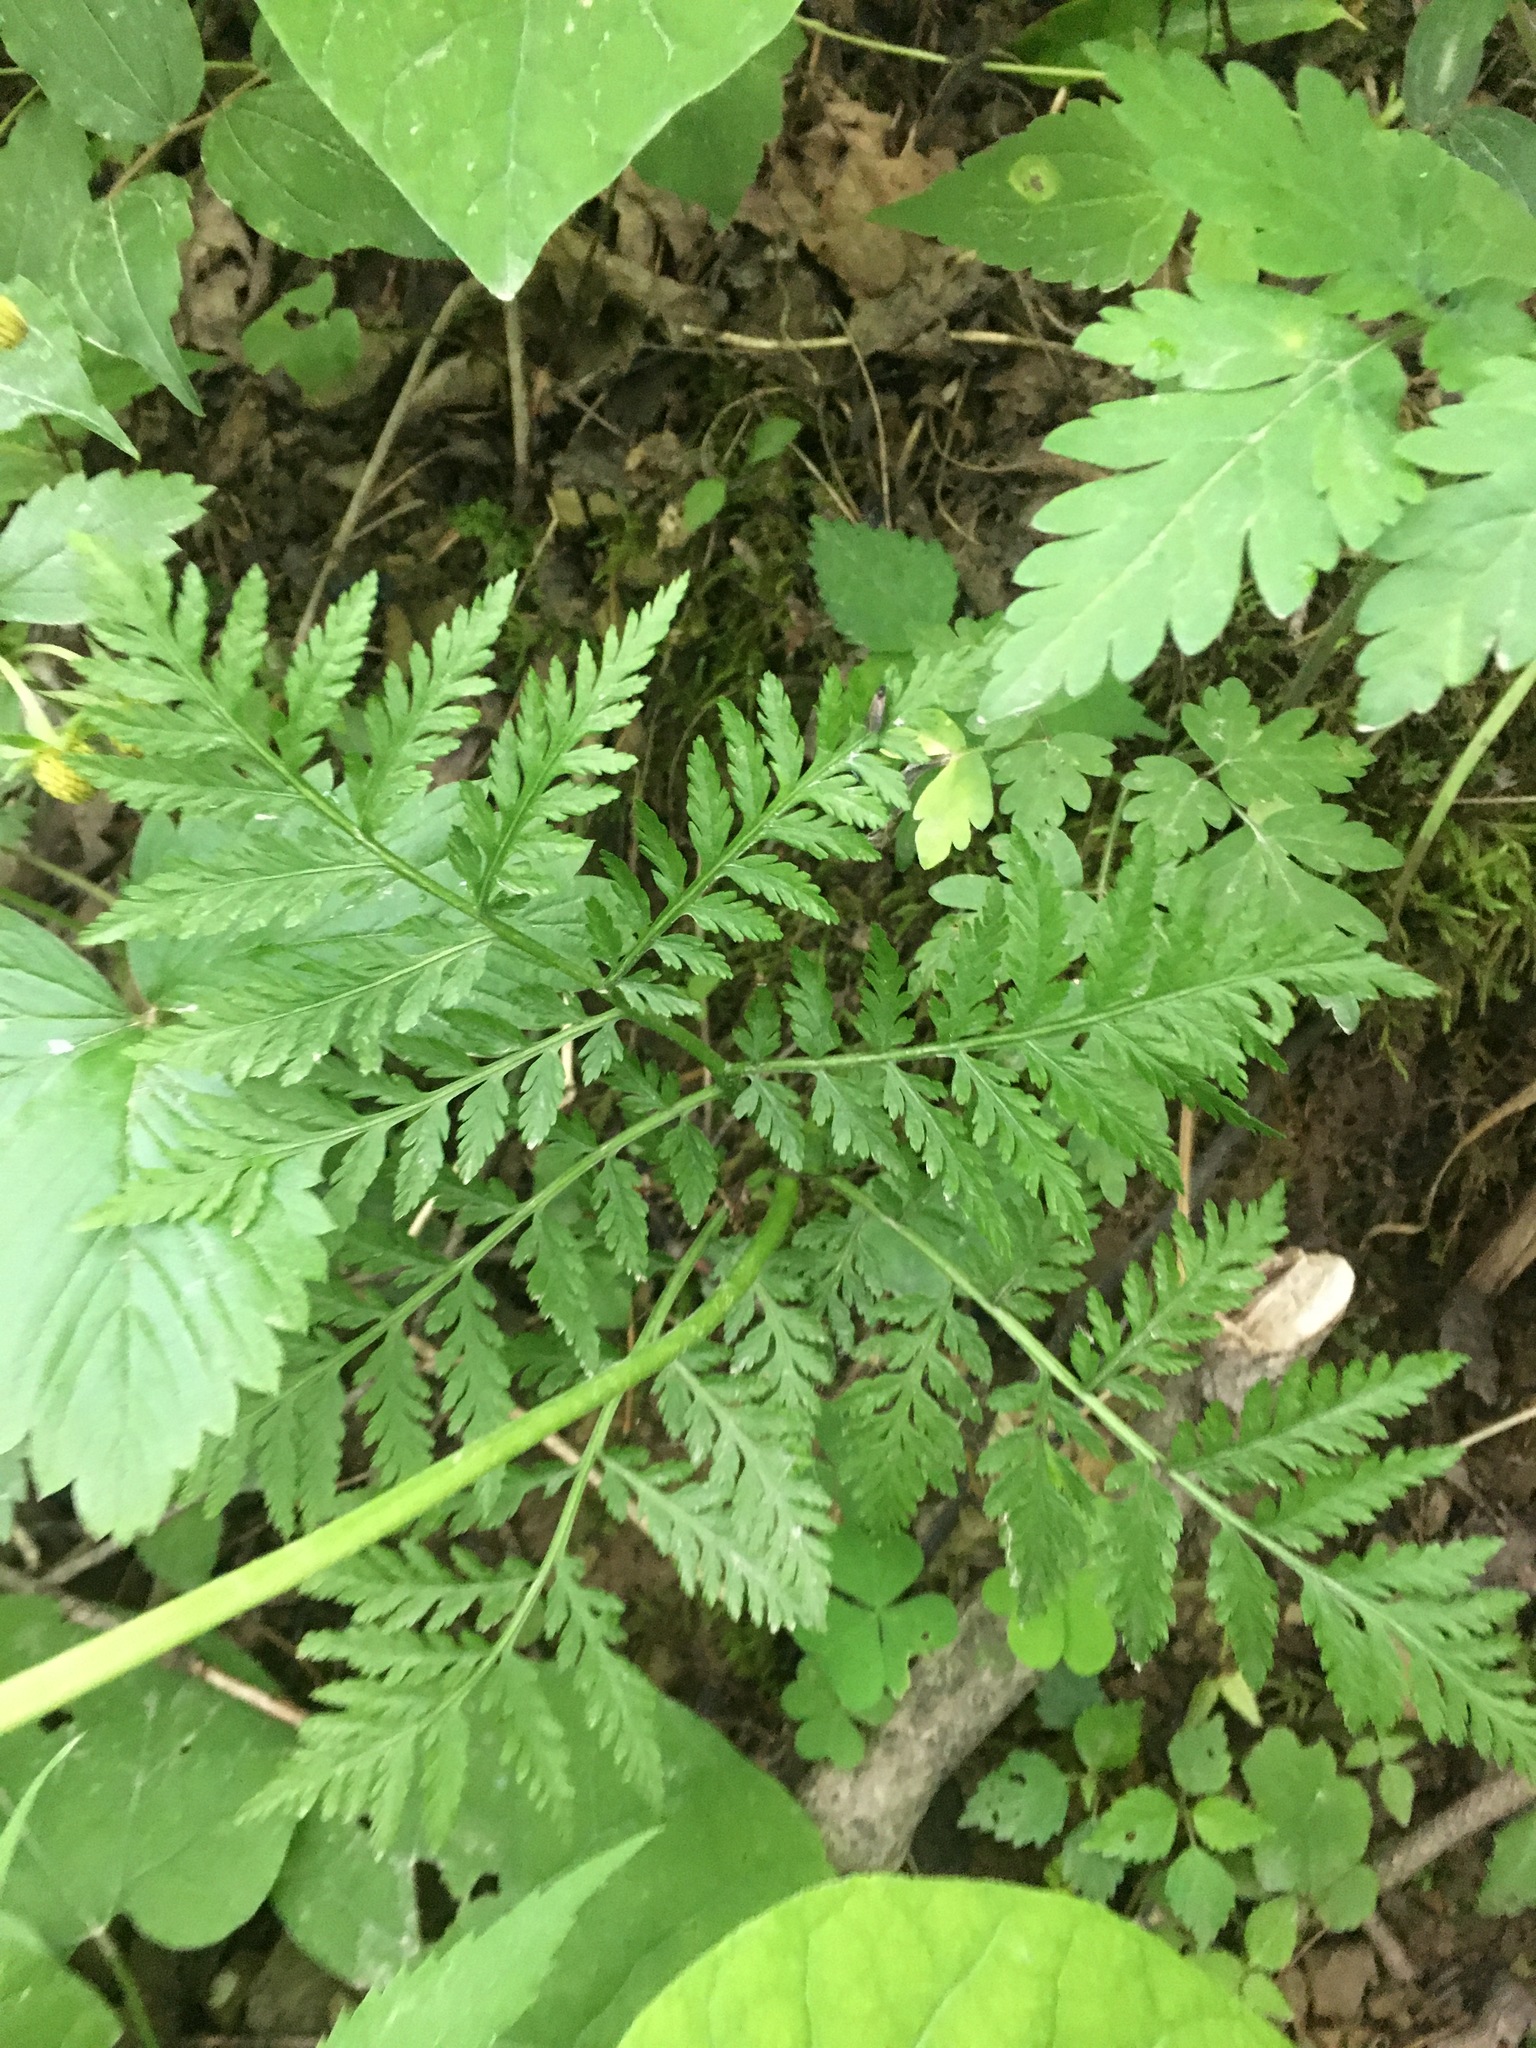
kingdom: Plantae
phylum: Tracheophyta
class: Polypodiopsida
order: Ophioglossales
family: Ophioglossaceae
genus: Botrypus
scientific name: Botrypus virginianus
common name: Common grapefern
